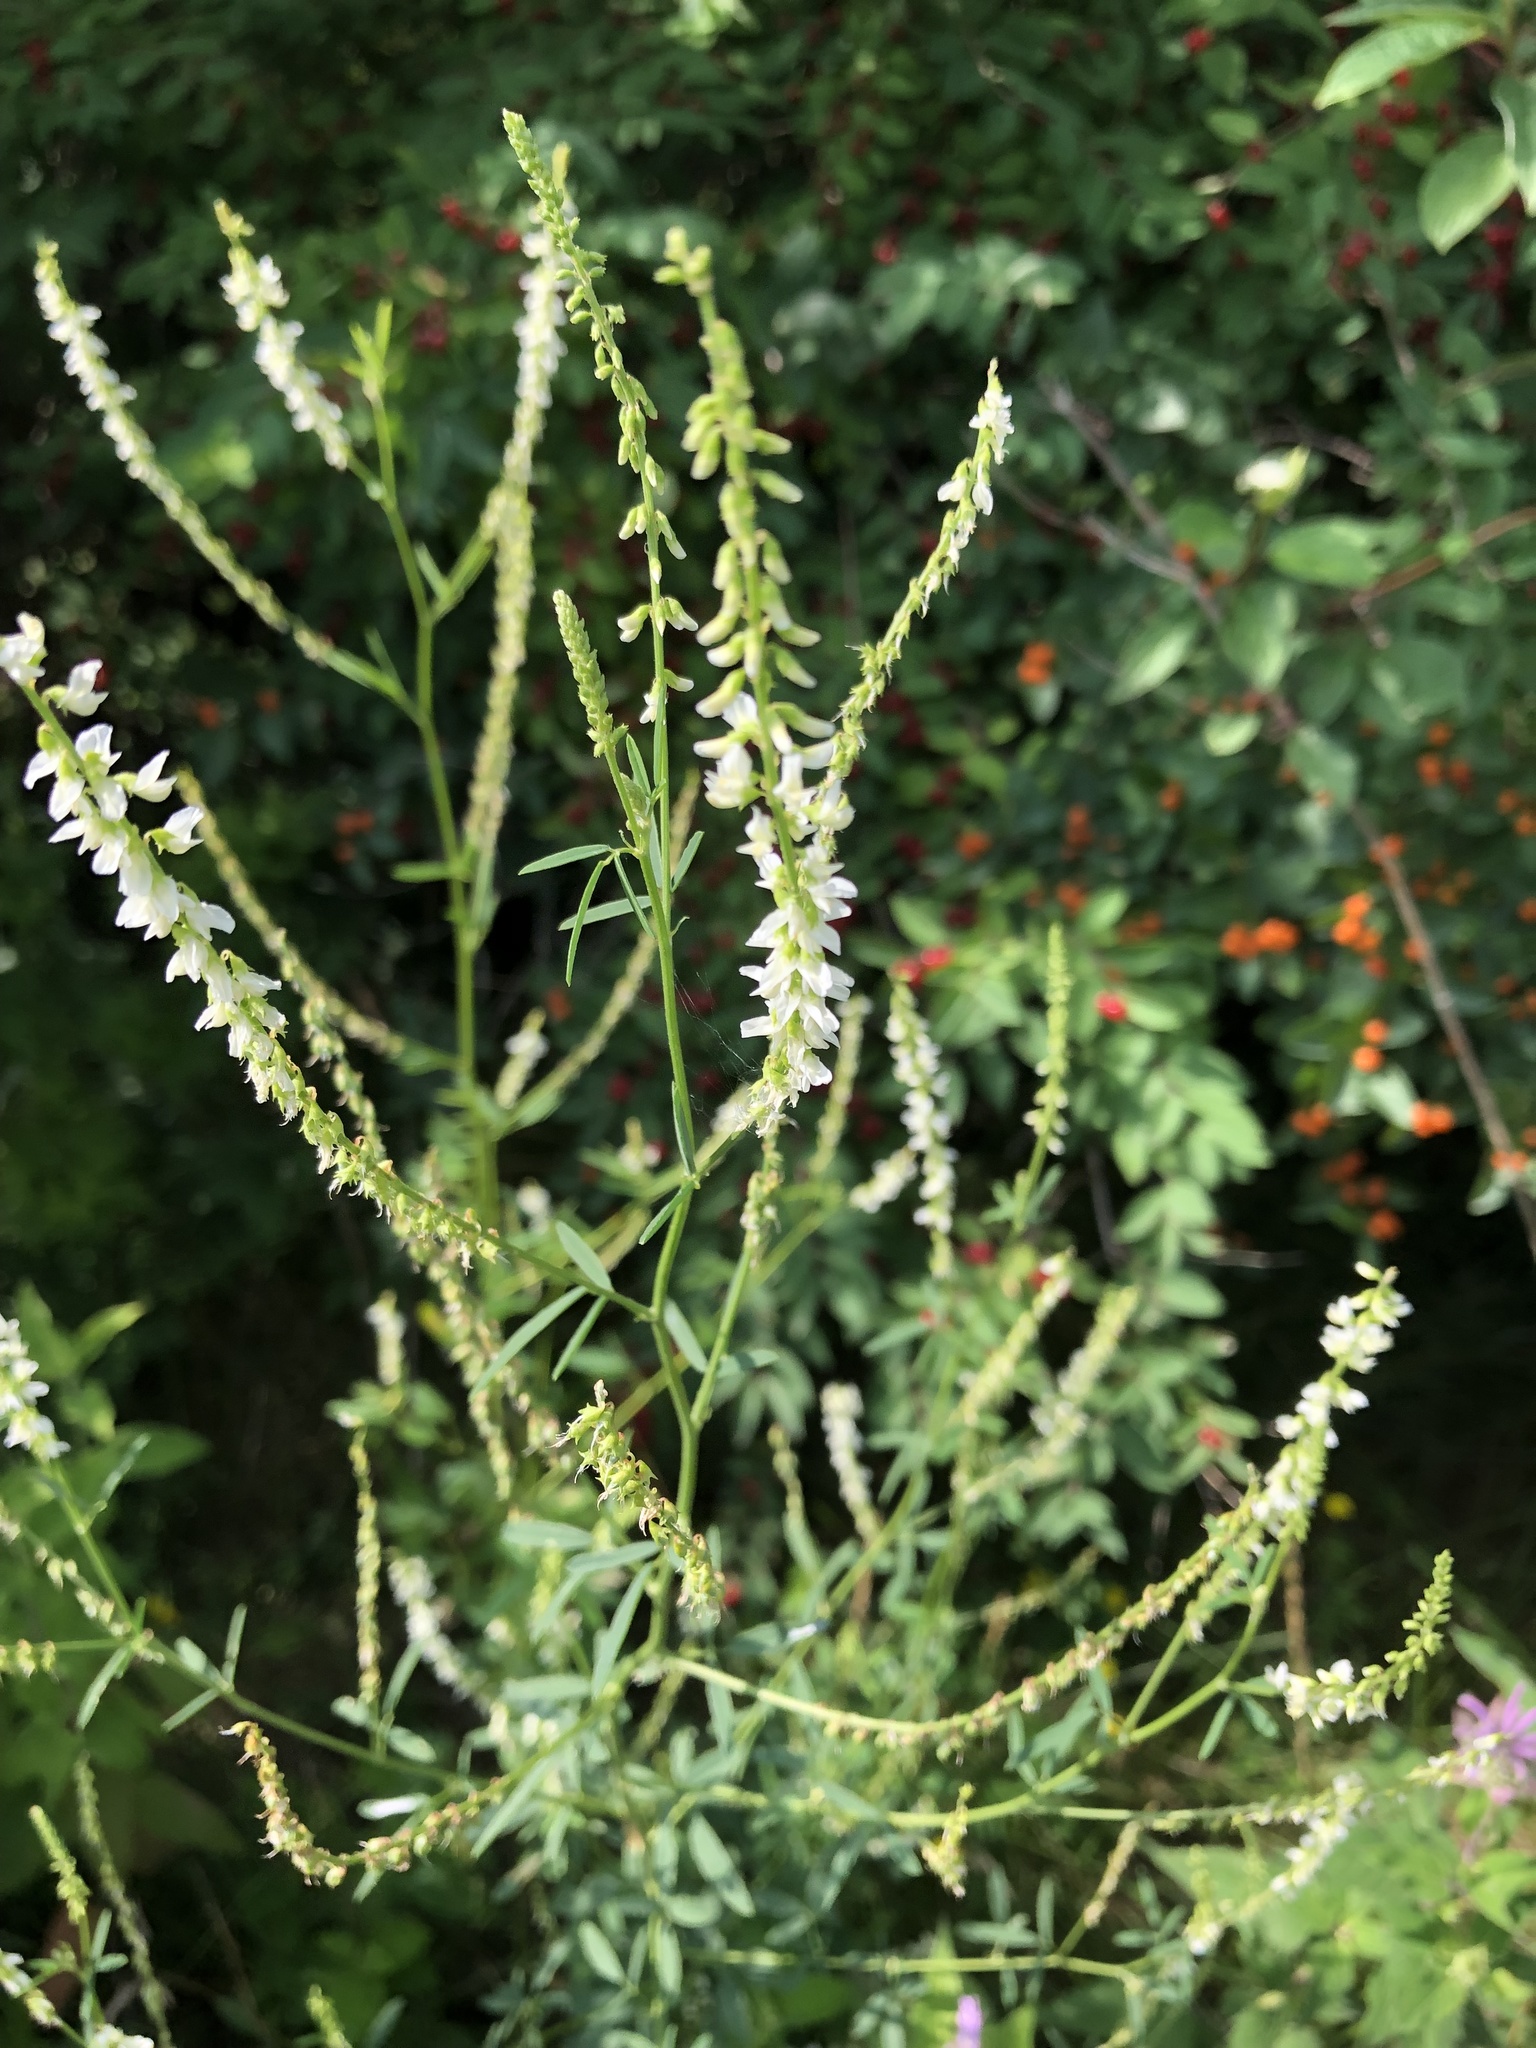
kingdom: Plantae
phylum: Tracheophyta
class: Magnoliopsida
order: Fabales
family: Fabaceae
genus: Melilotus
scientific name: Melilotus albus
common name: White melilot
